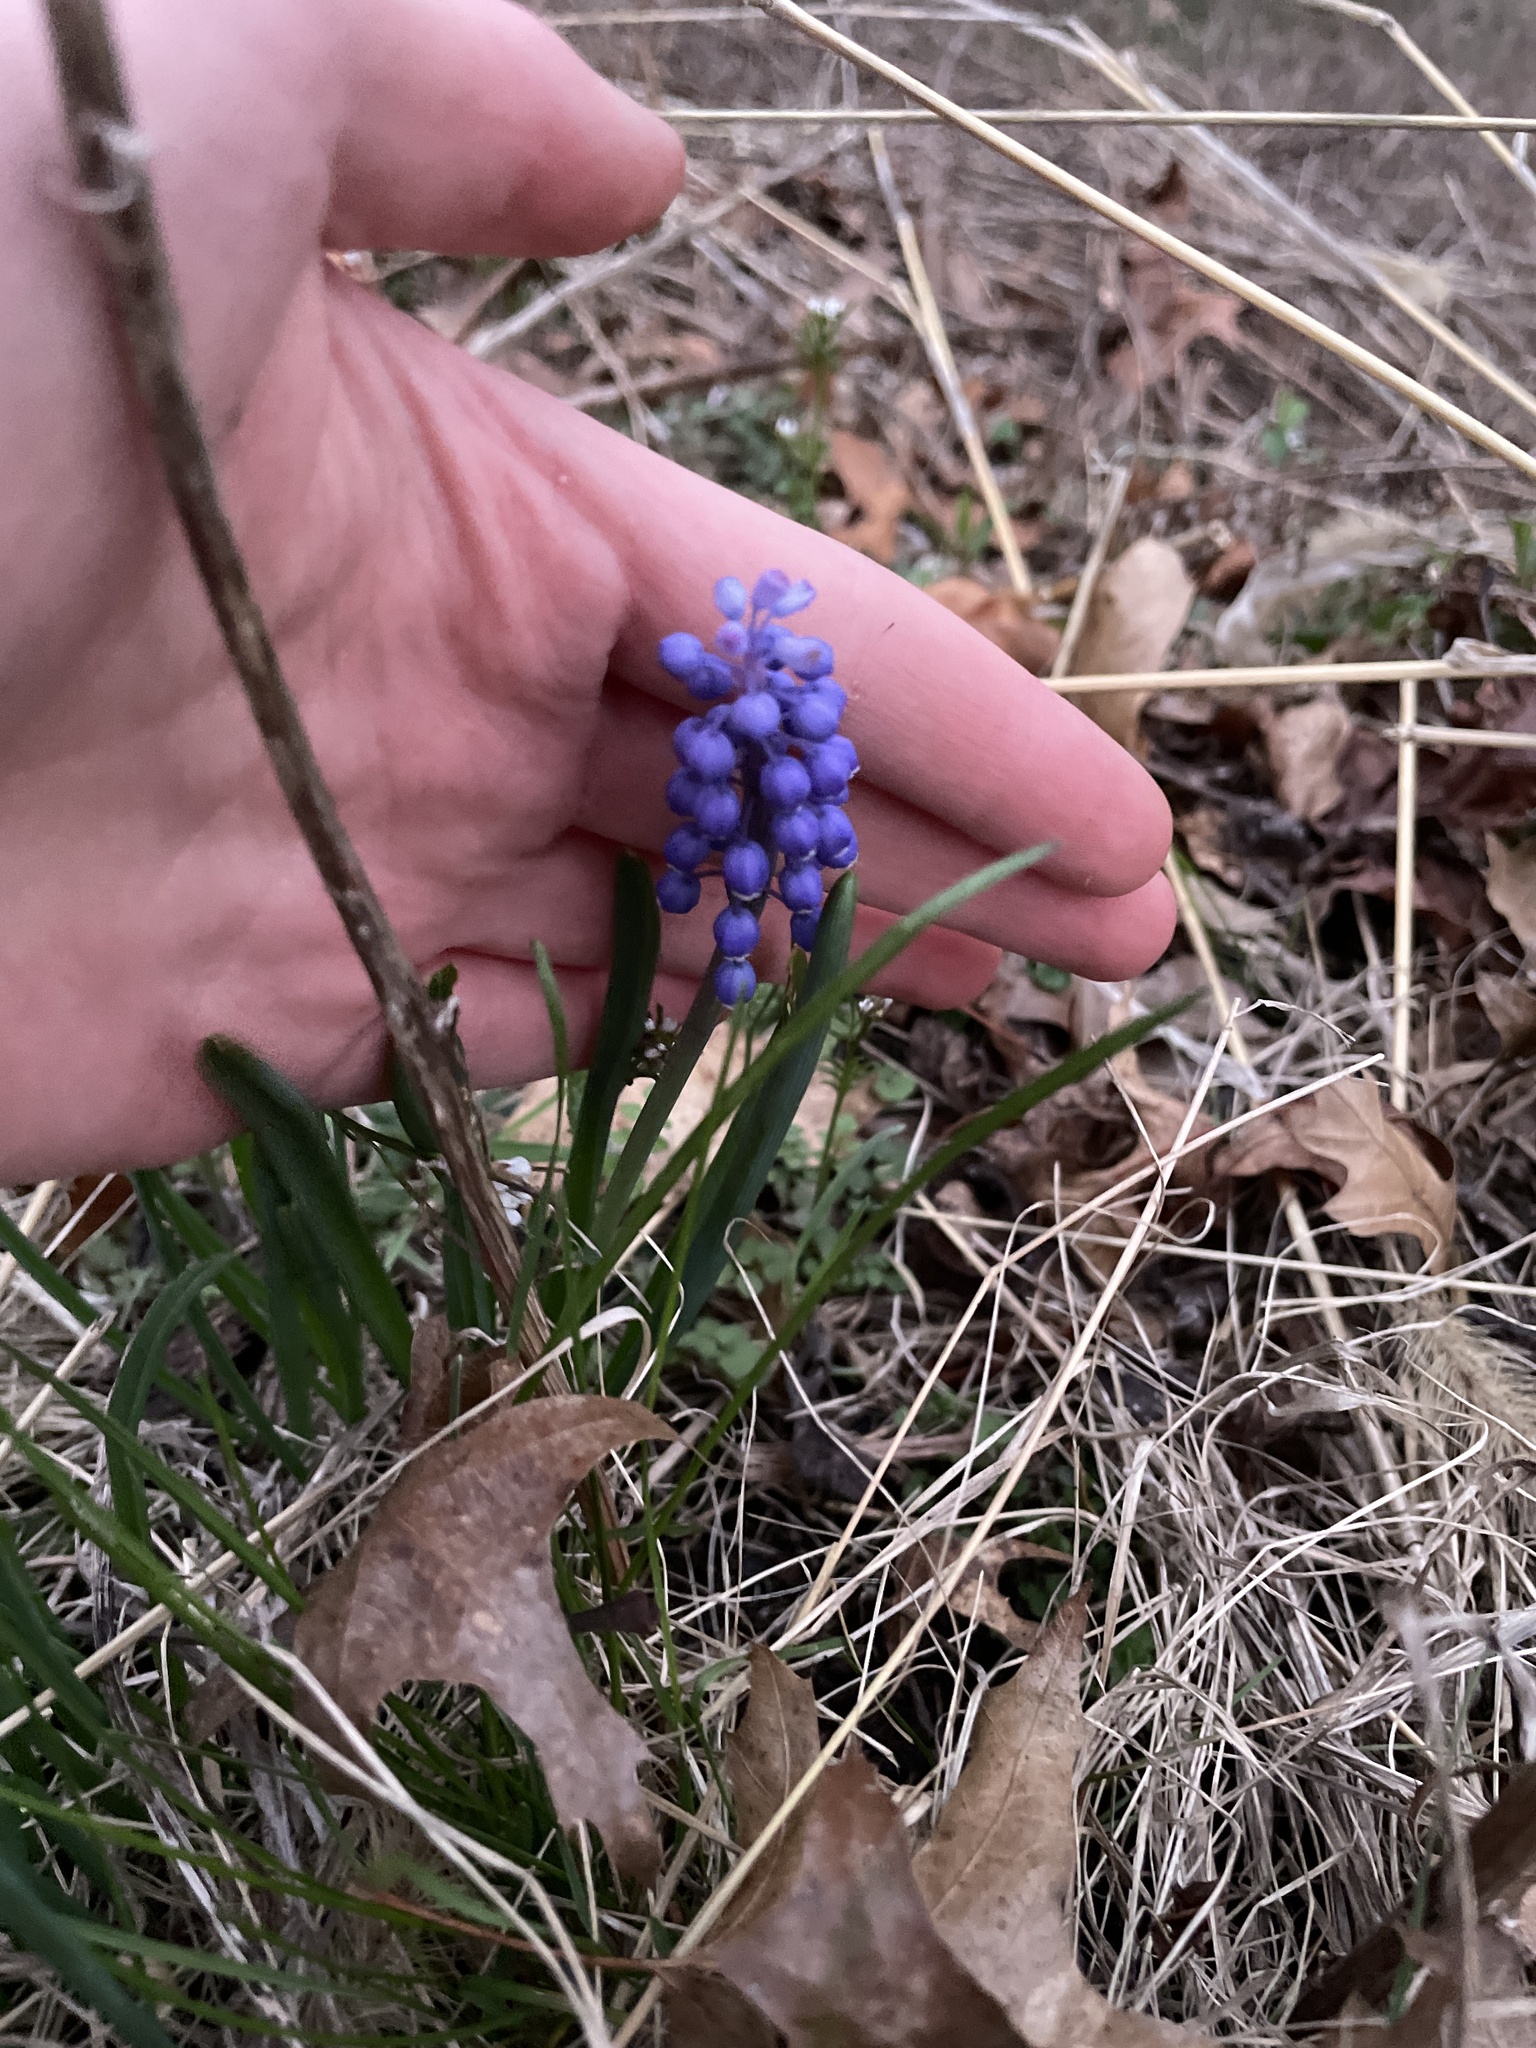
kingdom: Plantae
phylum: Tracheophyta
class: Liliopsida
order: Asparagales
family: Asparagaceae
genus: Muscari
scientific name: Muscari botryoides
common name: Compact grape-hyacinth
